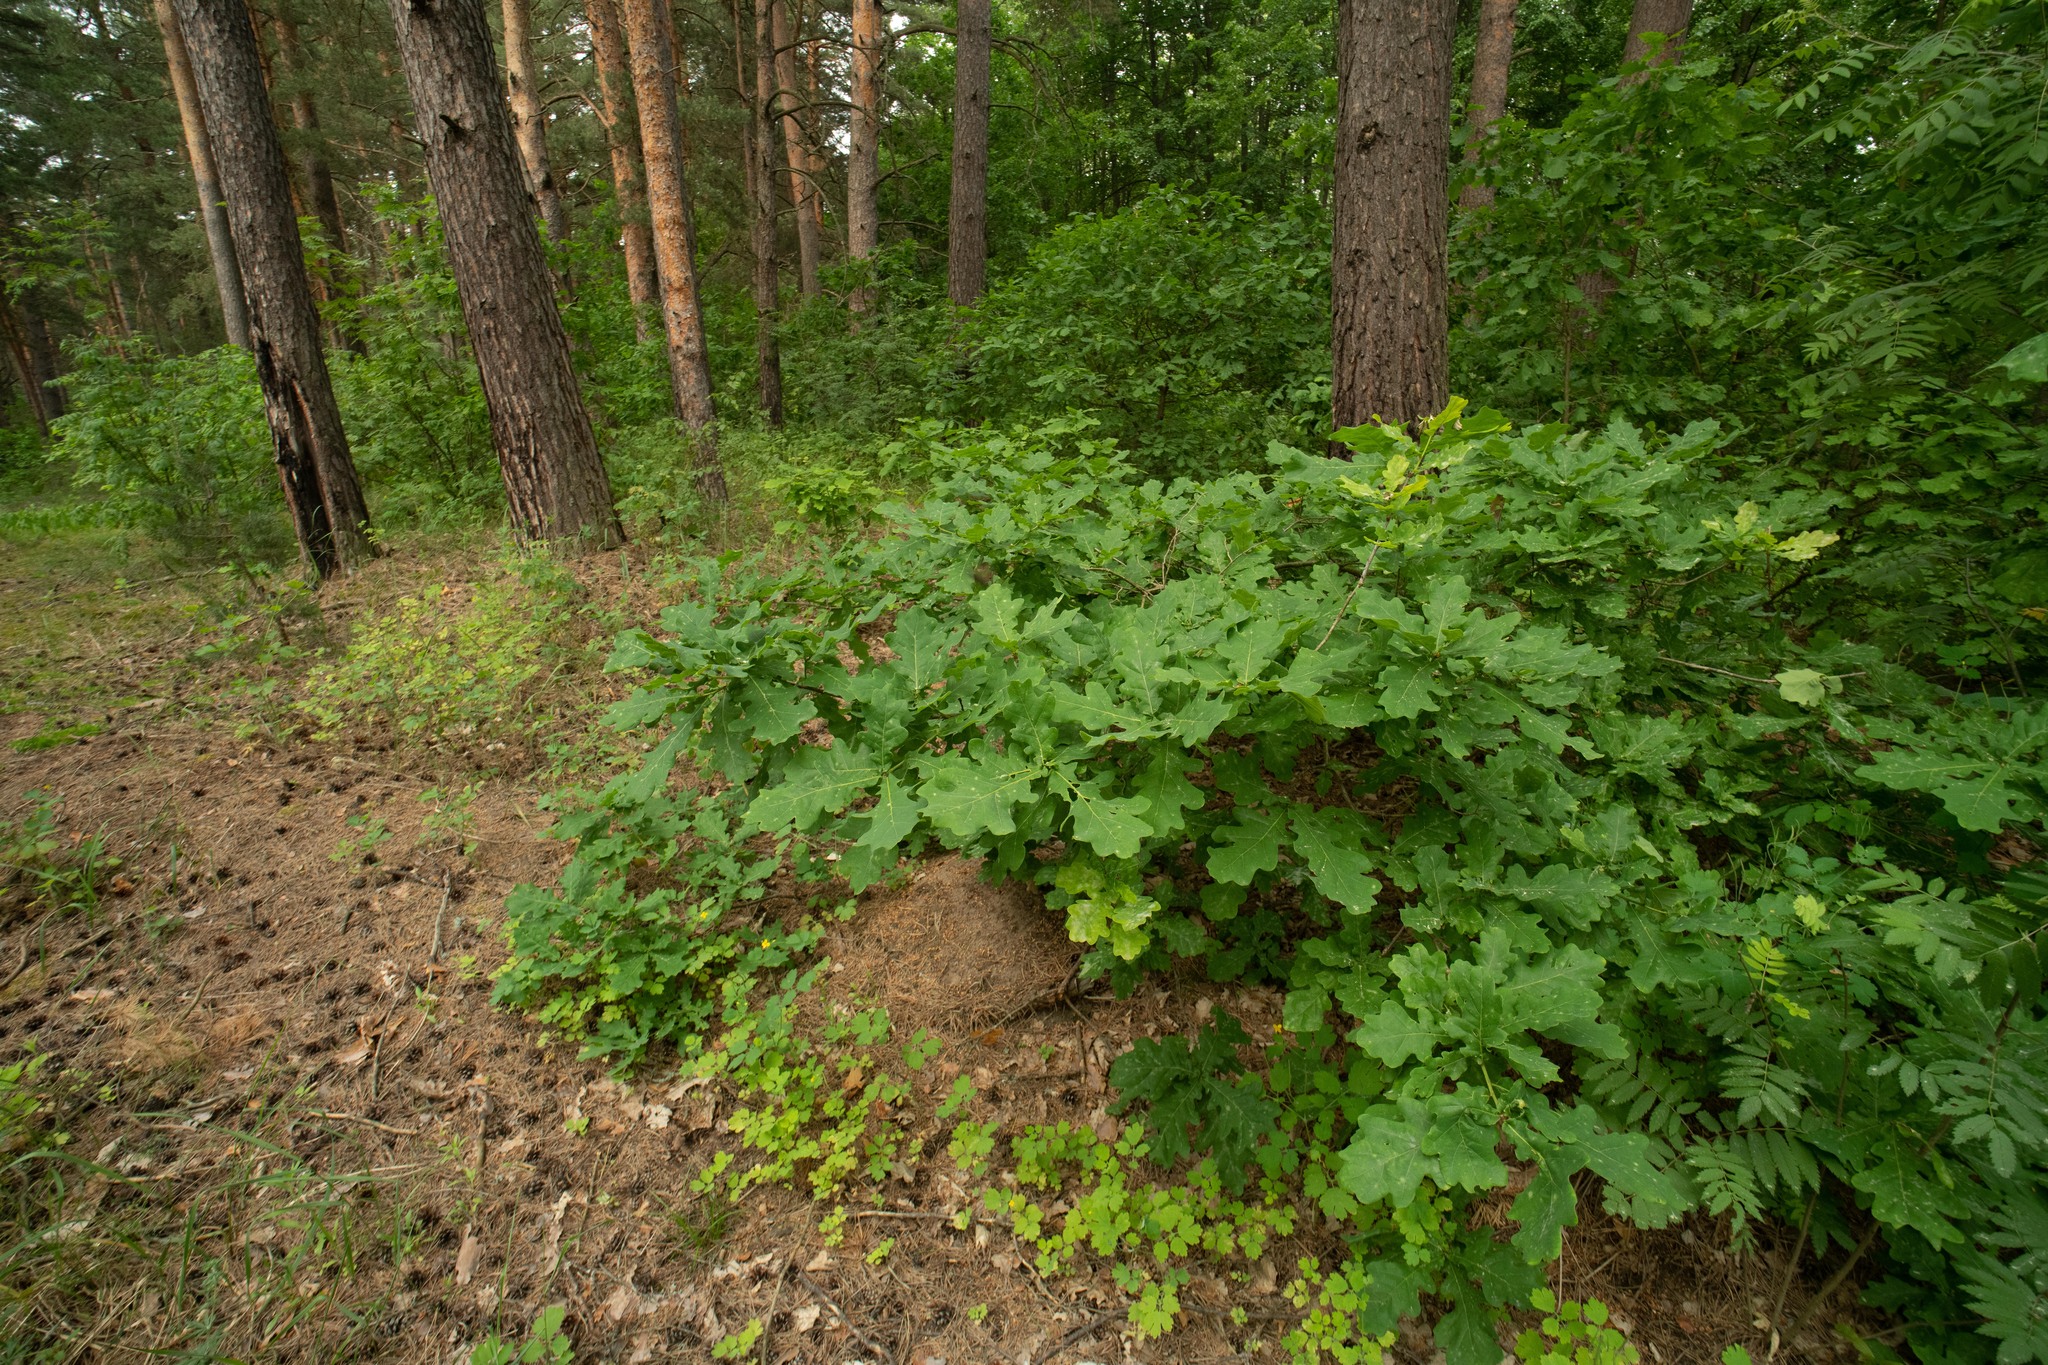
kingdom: Plantae
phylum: Tracheophyta
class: Magnoliopsida
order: Fagales
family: Fagaceae
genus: Quercus
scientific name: Quercus robur
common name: Pedunculate oak
